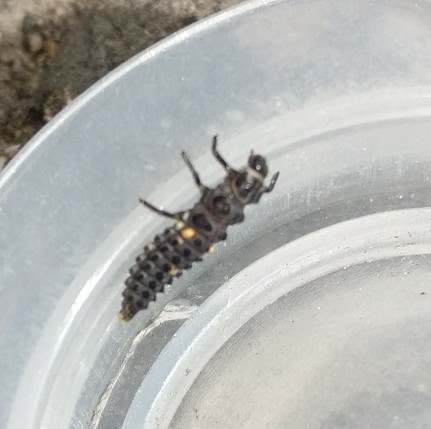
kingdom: Animalia
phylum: Arthropoda
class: Insecta
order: Coleoptera
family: Coccinellidae
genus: Adalia
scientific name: Adalia bipunctata
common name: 2-spot ladybird
